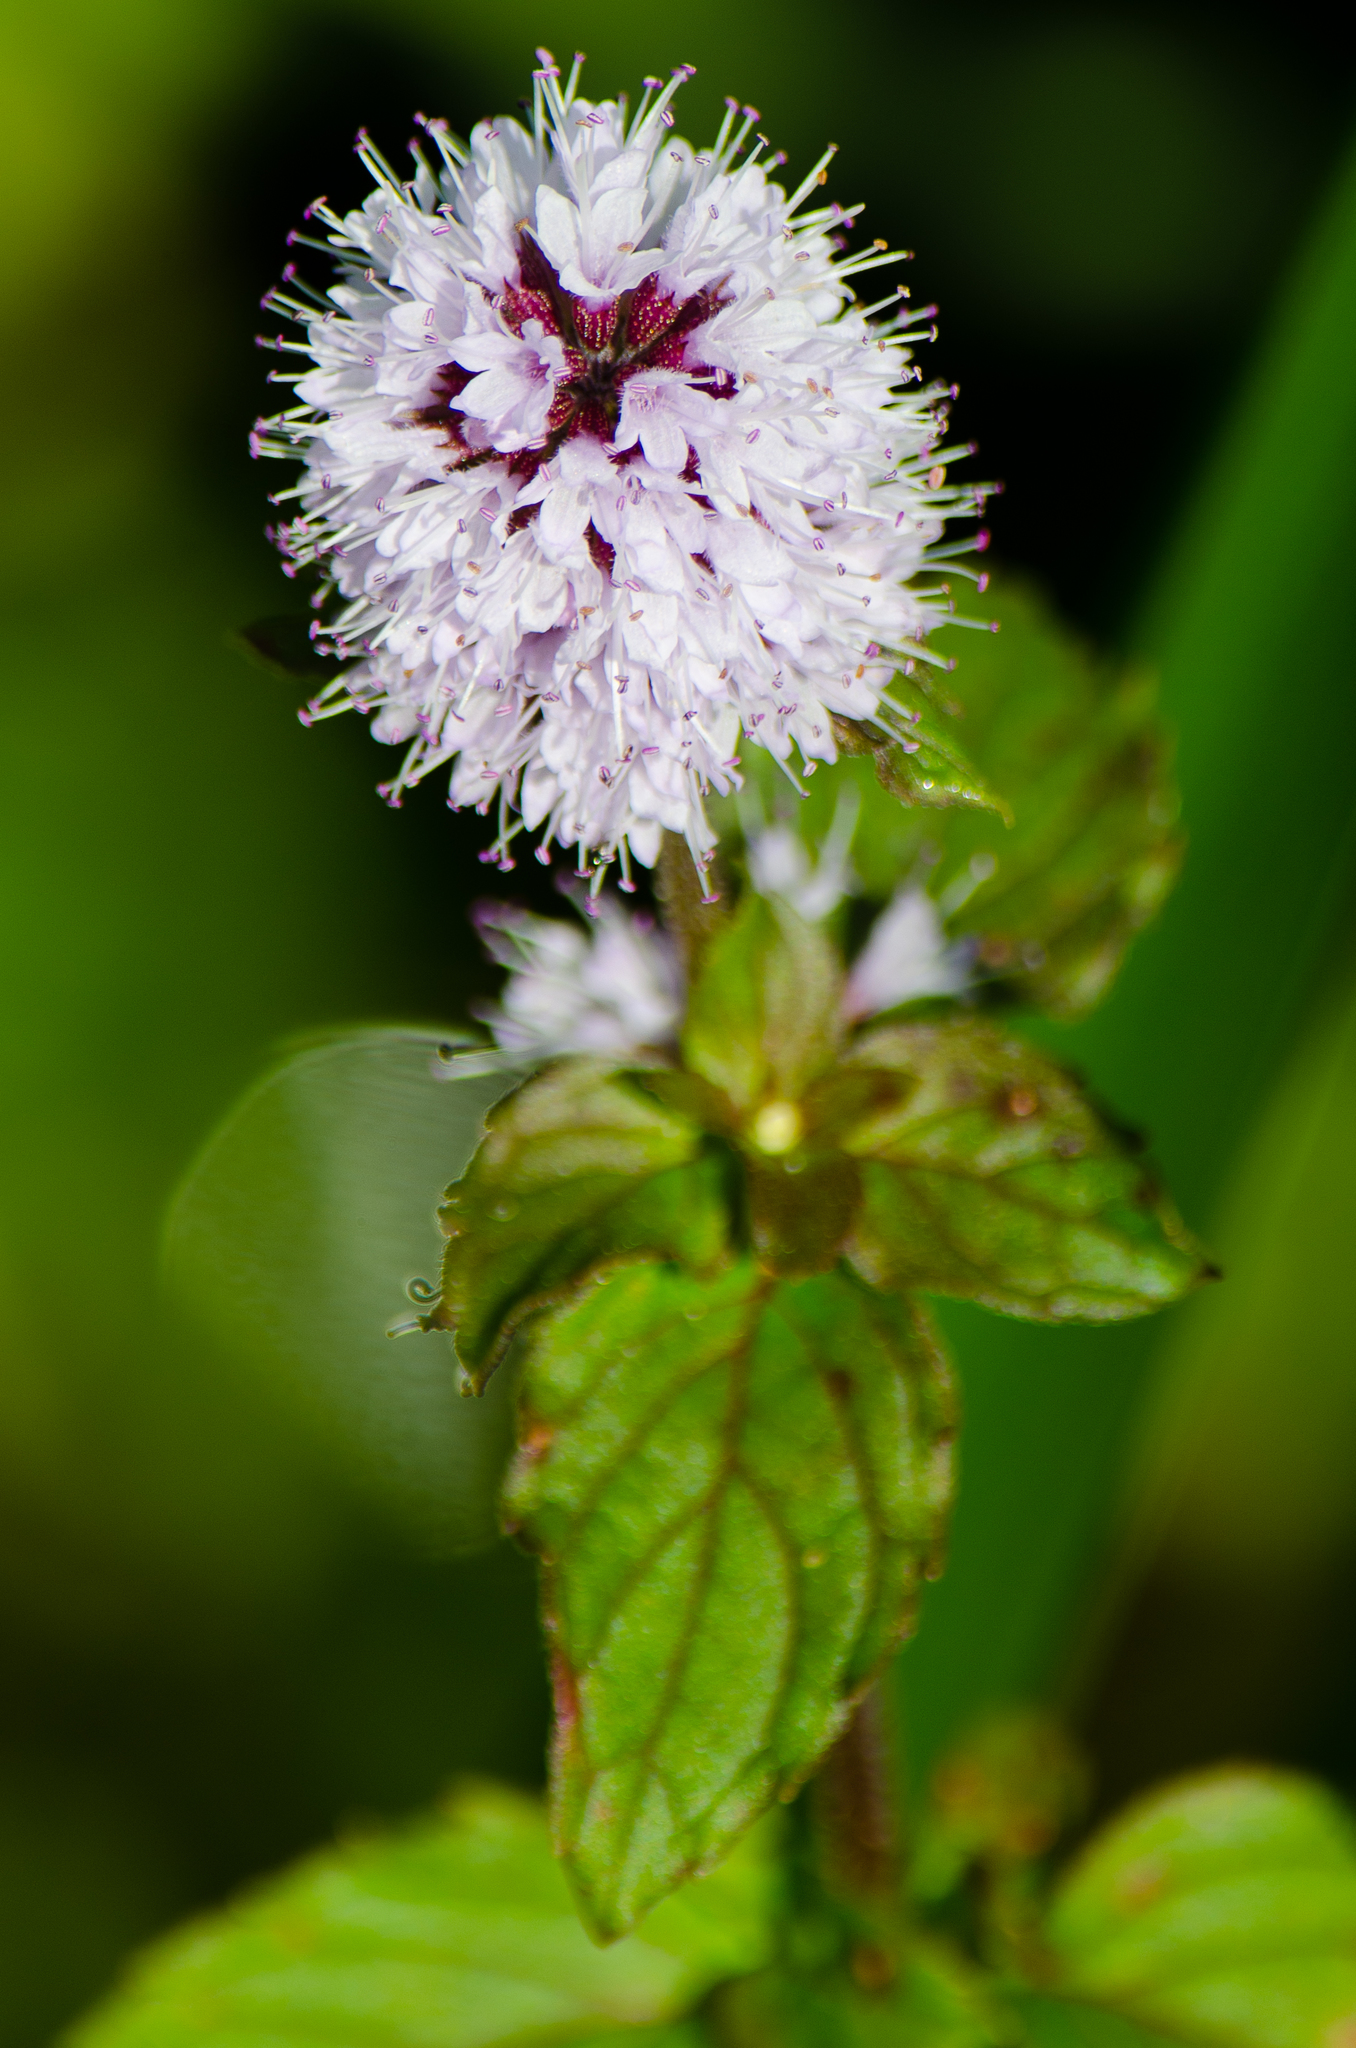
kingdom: Plantae
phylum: Tracheophyta
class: Magnoliopsida
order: Lamiales
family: Lamiaceae
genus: Mentha
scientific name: Mentha aquatica
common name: Water mint
